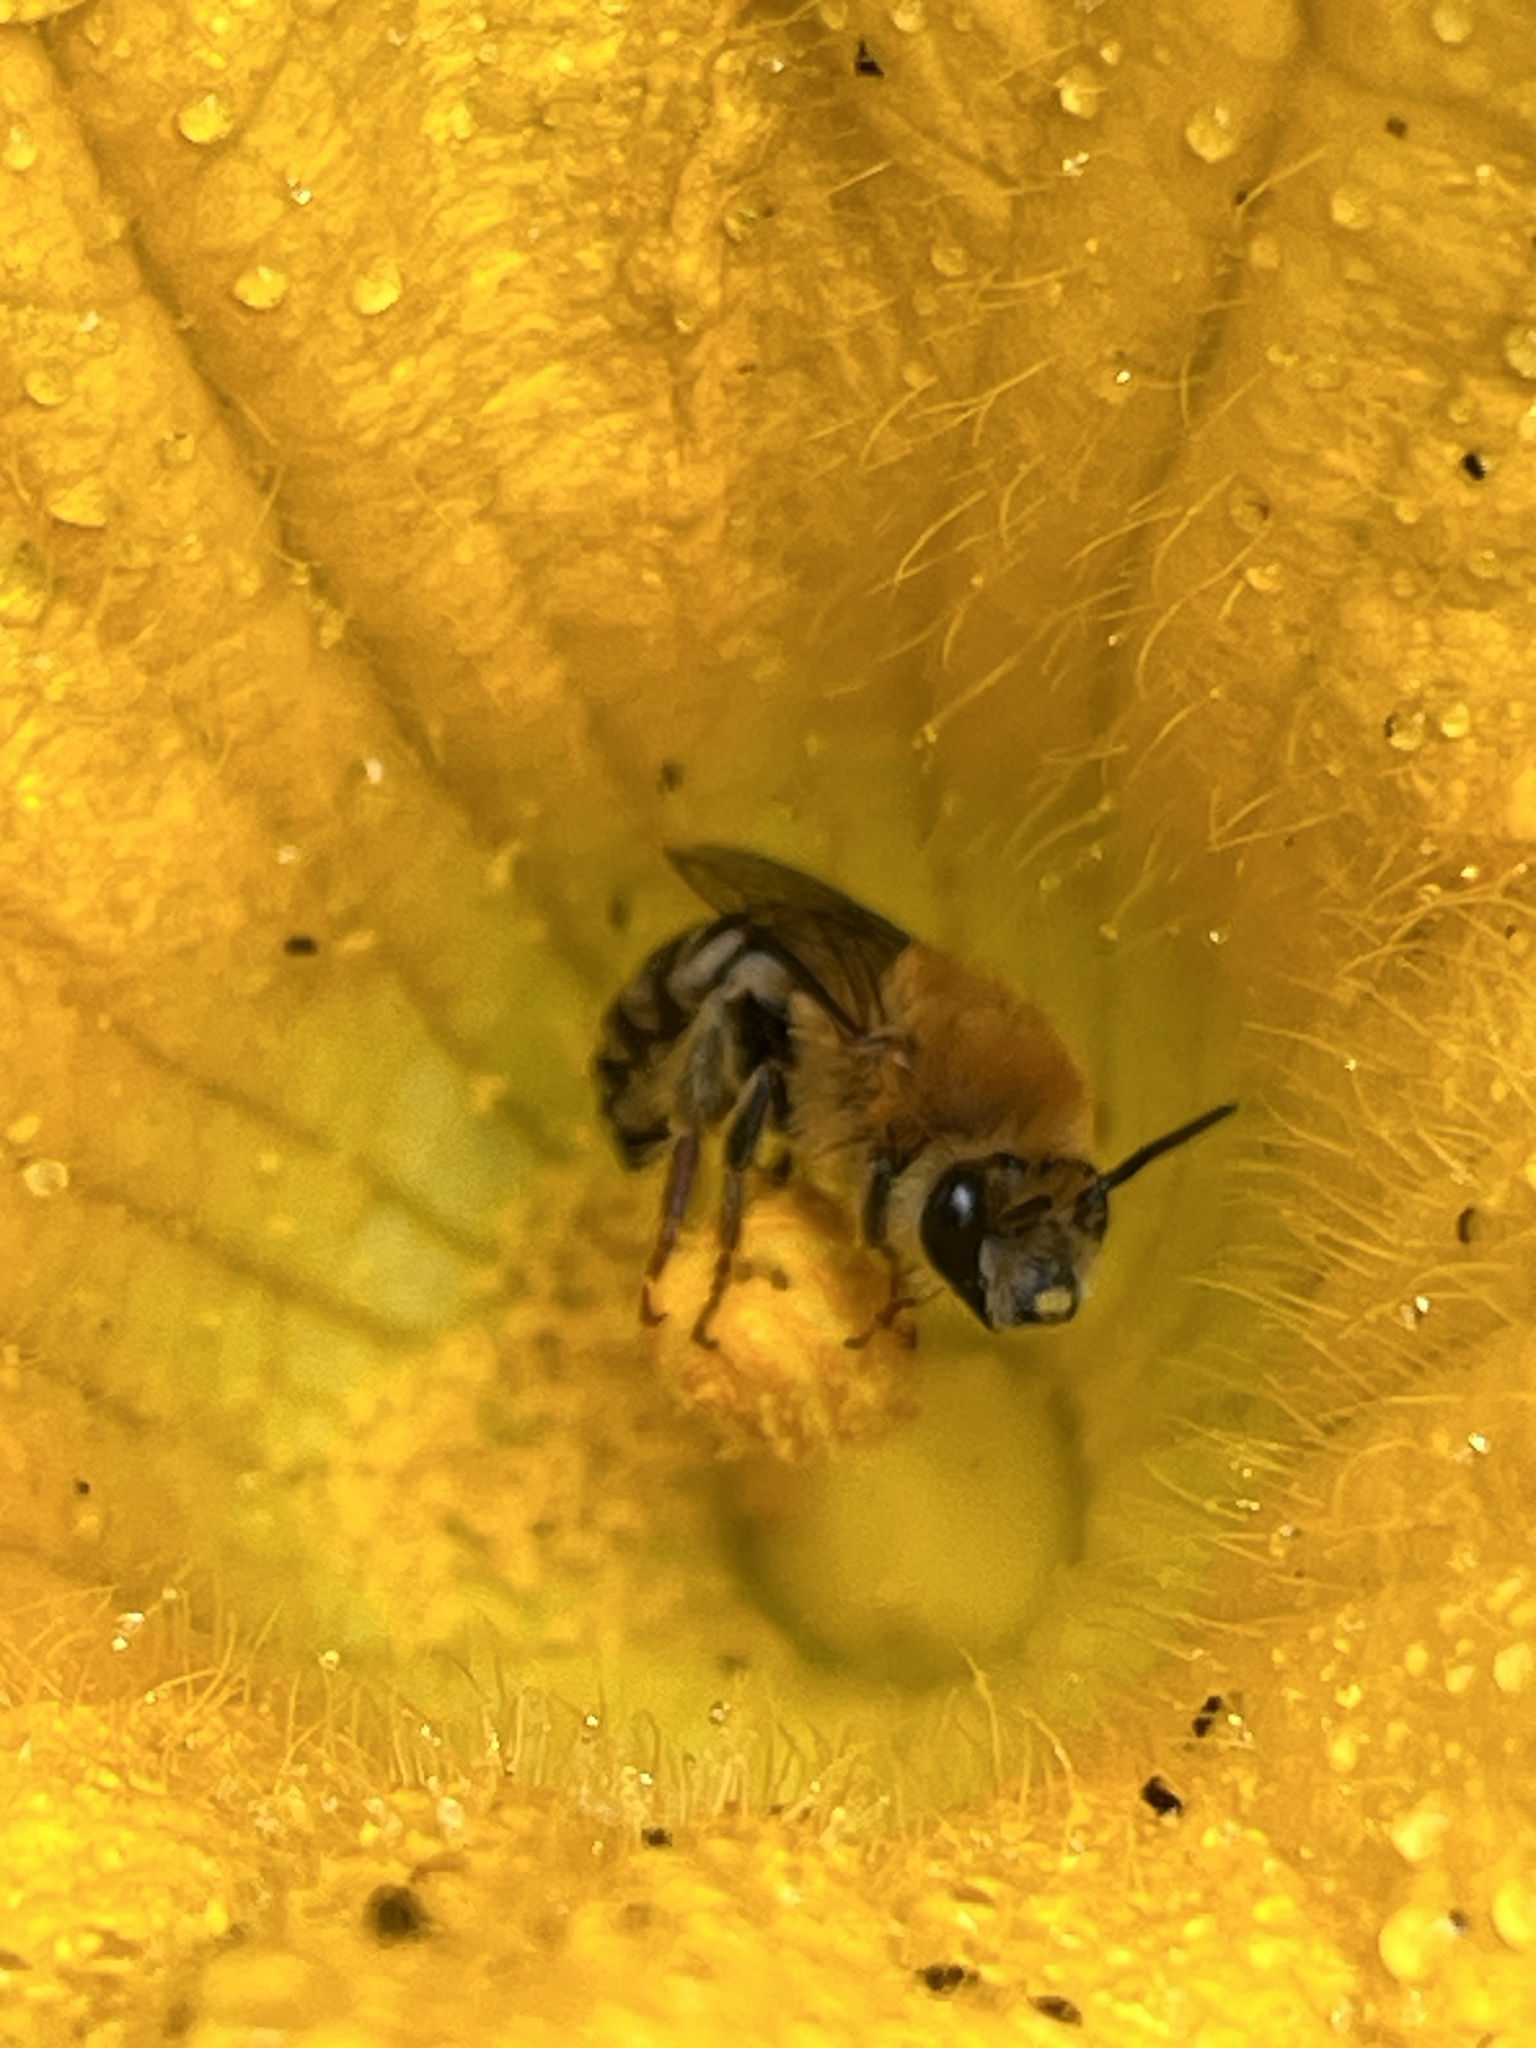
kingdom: Animalia
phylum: Arthropoda
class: Insecta
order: Hymenoptera
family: Apidae
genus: Peponapis
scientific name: Peponapis pruinosa
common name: Pruinose squash bee
